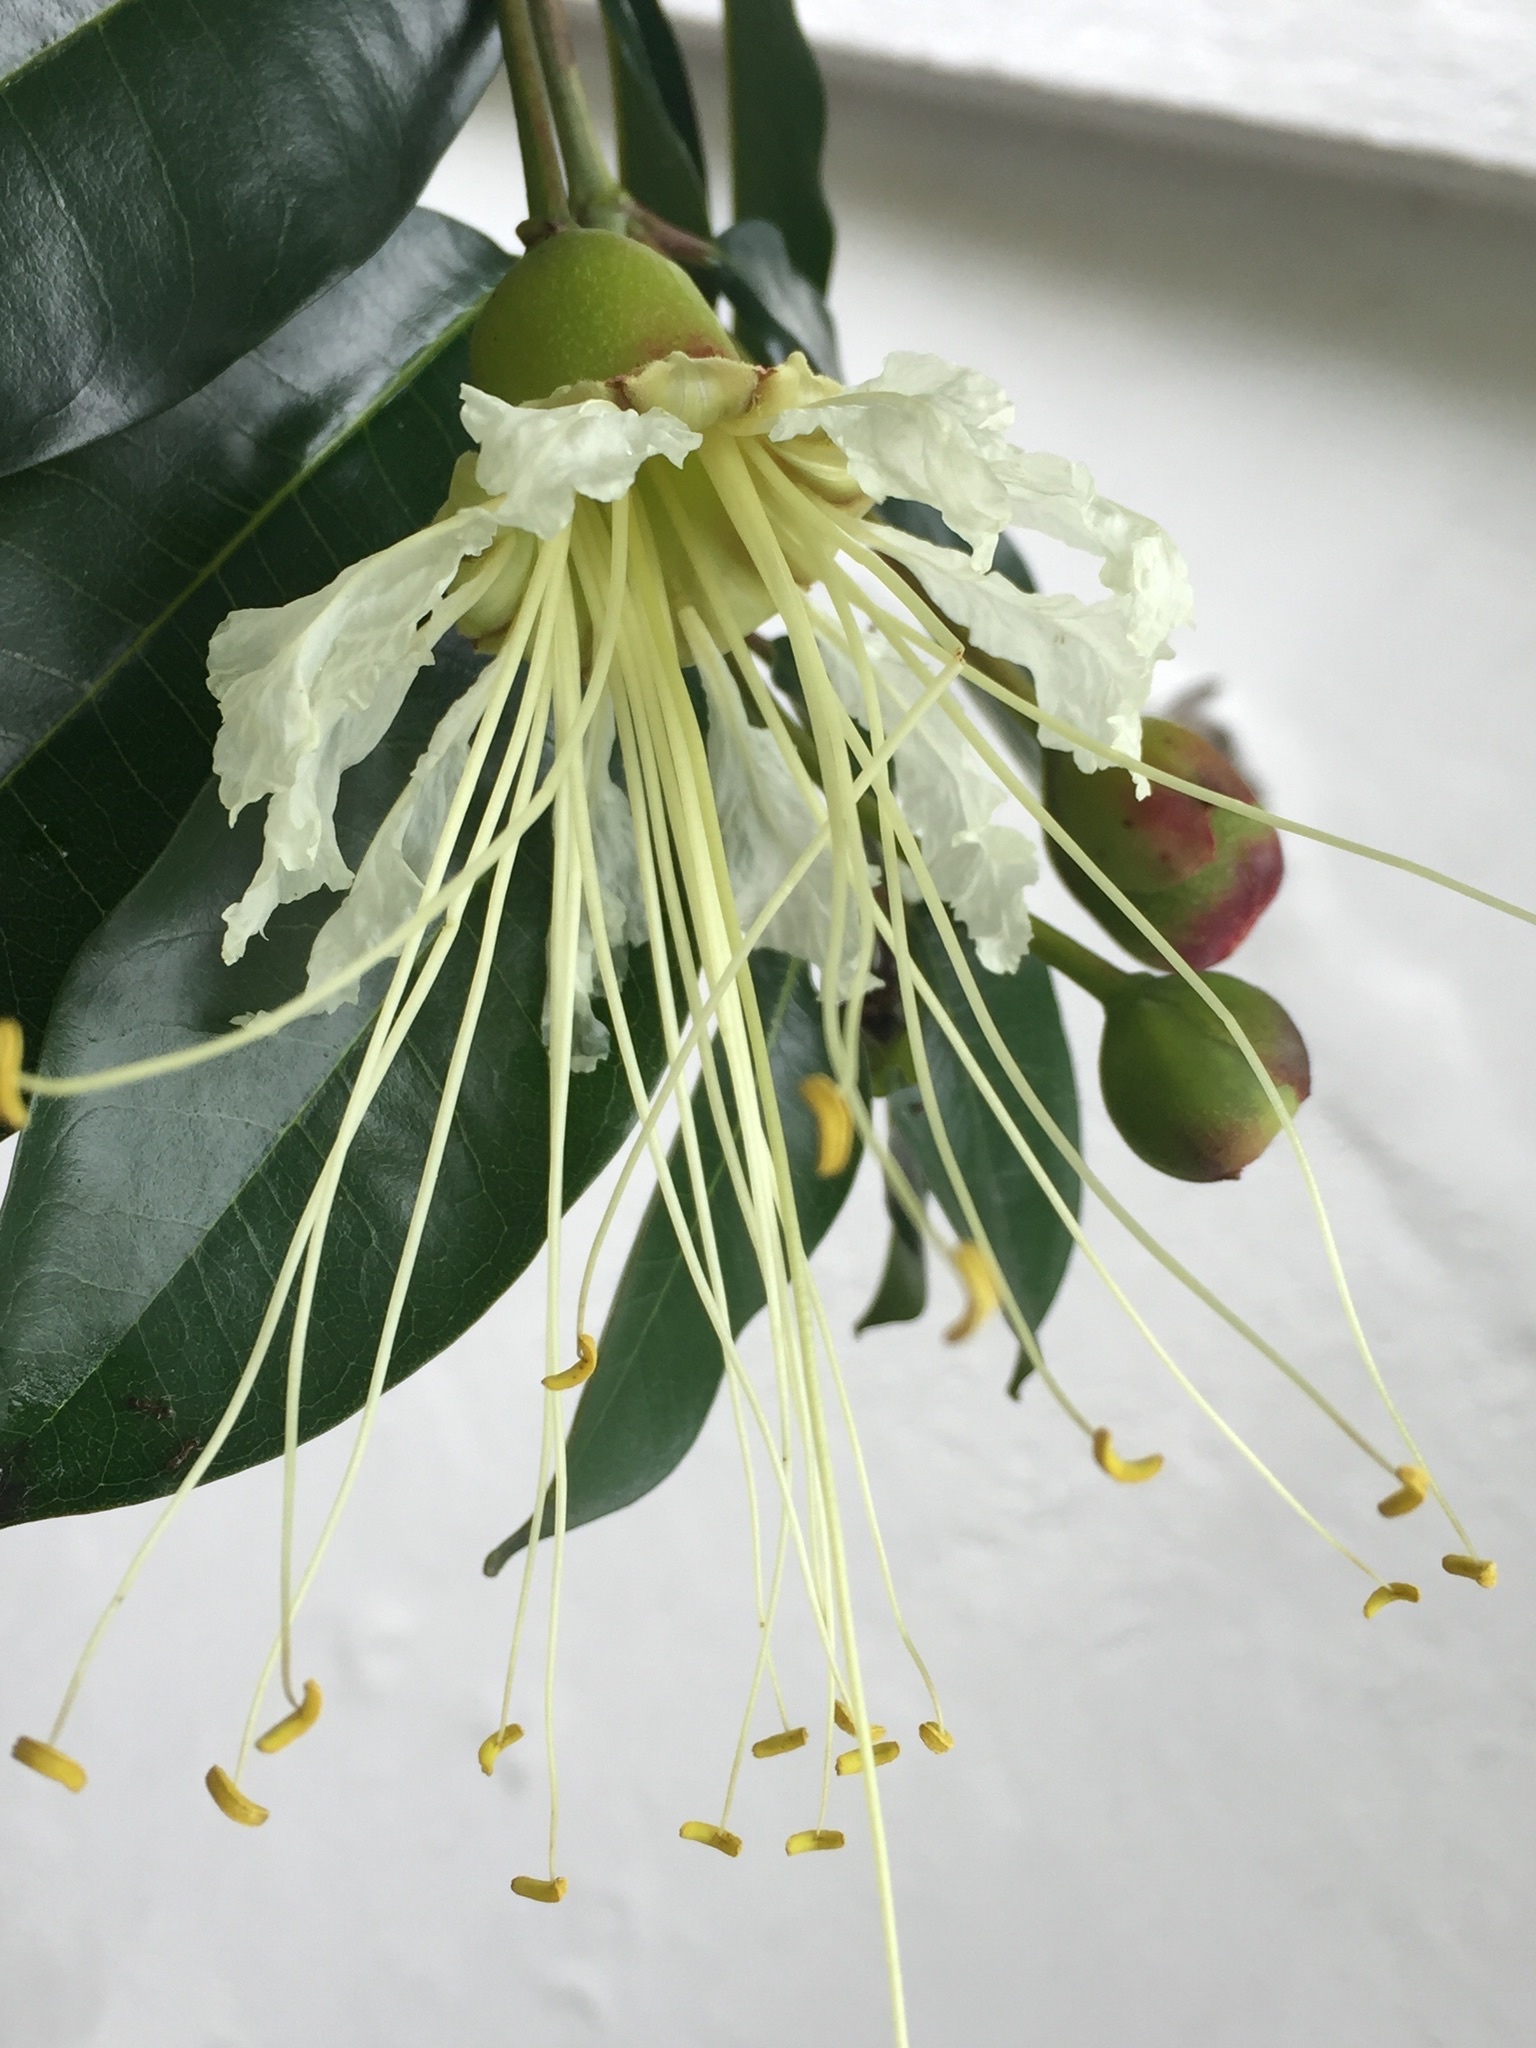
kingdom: Plantae
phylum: Tracheophyta
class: Magnoliopsida
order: Myrtales
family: Lythraceae
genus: Lafoensia
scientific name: Lafoensia acuminata
